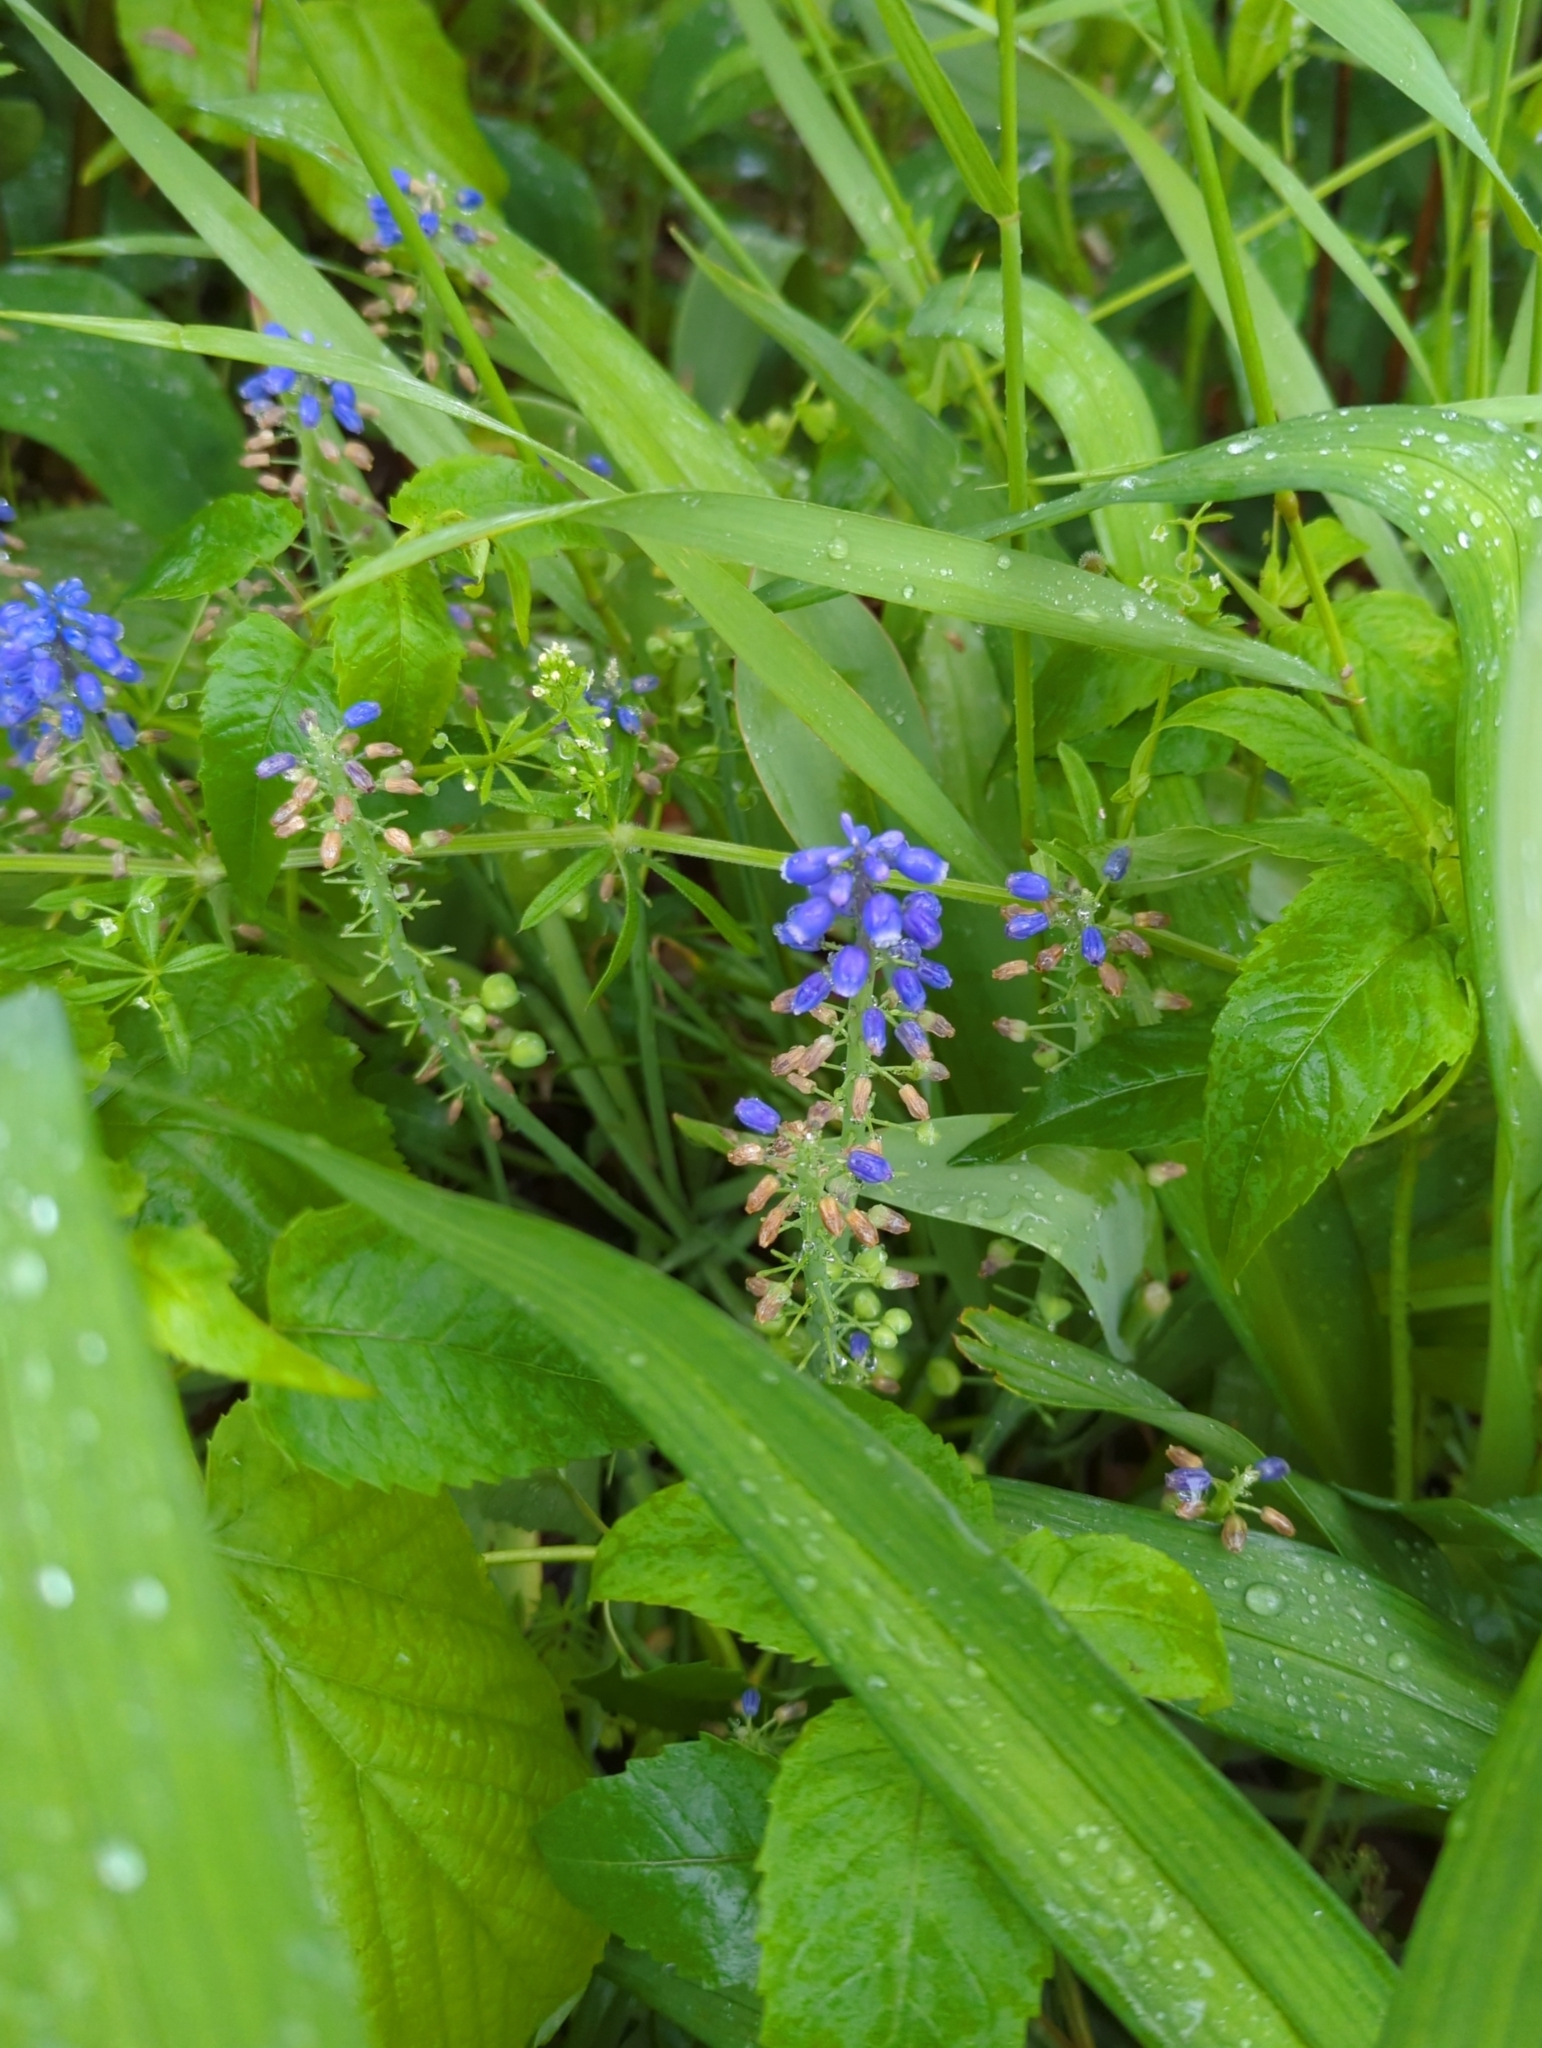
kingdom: Plantae
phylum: Tracheophyta
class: Liliopsida
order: Asparagales
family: Asparagaceae
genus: Muscari
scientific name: Muscari armeniacum
